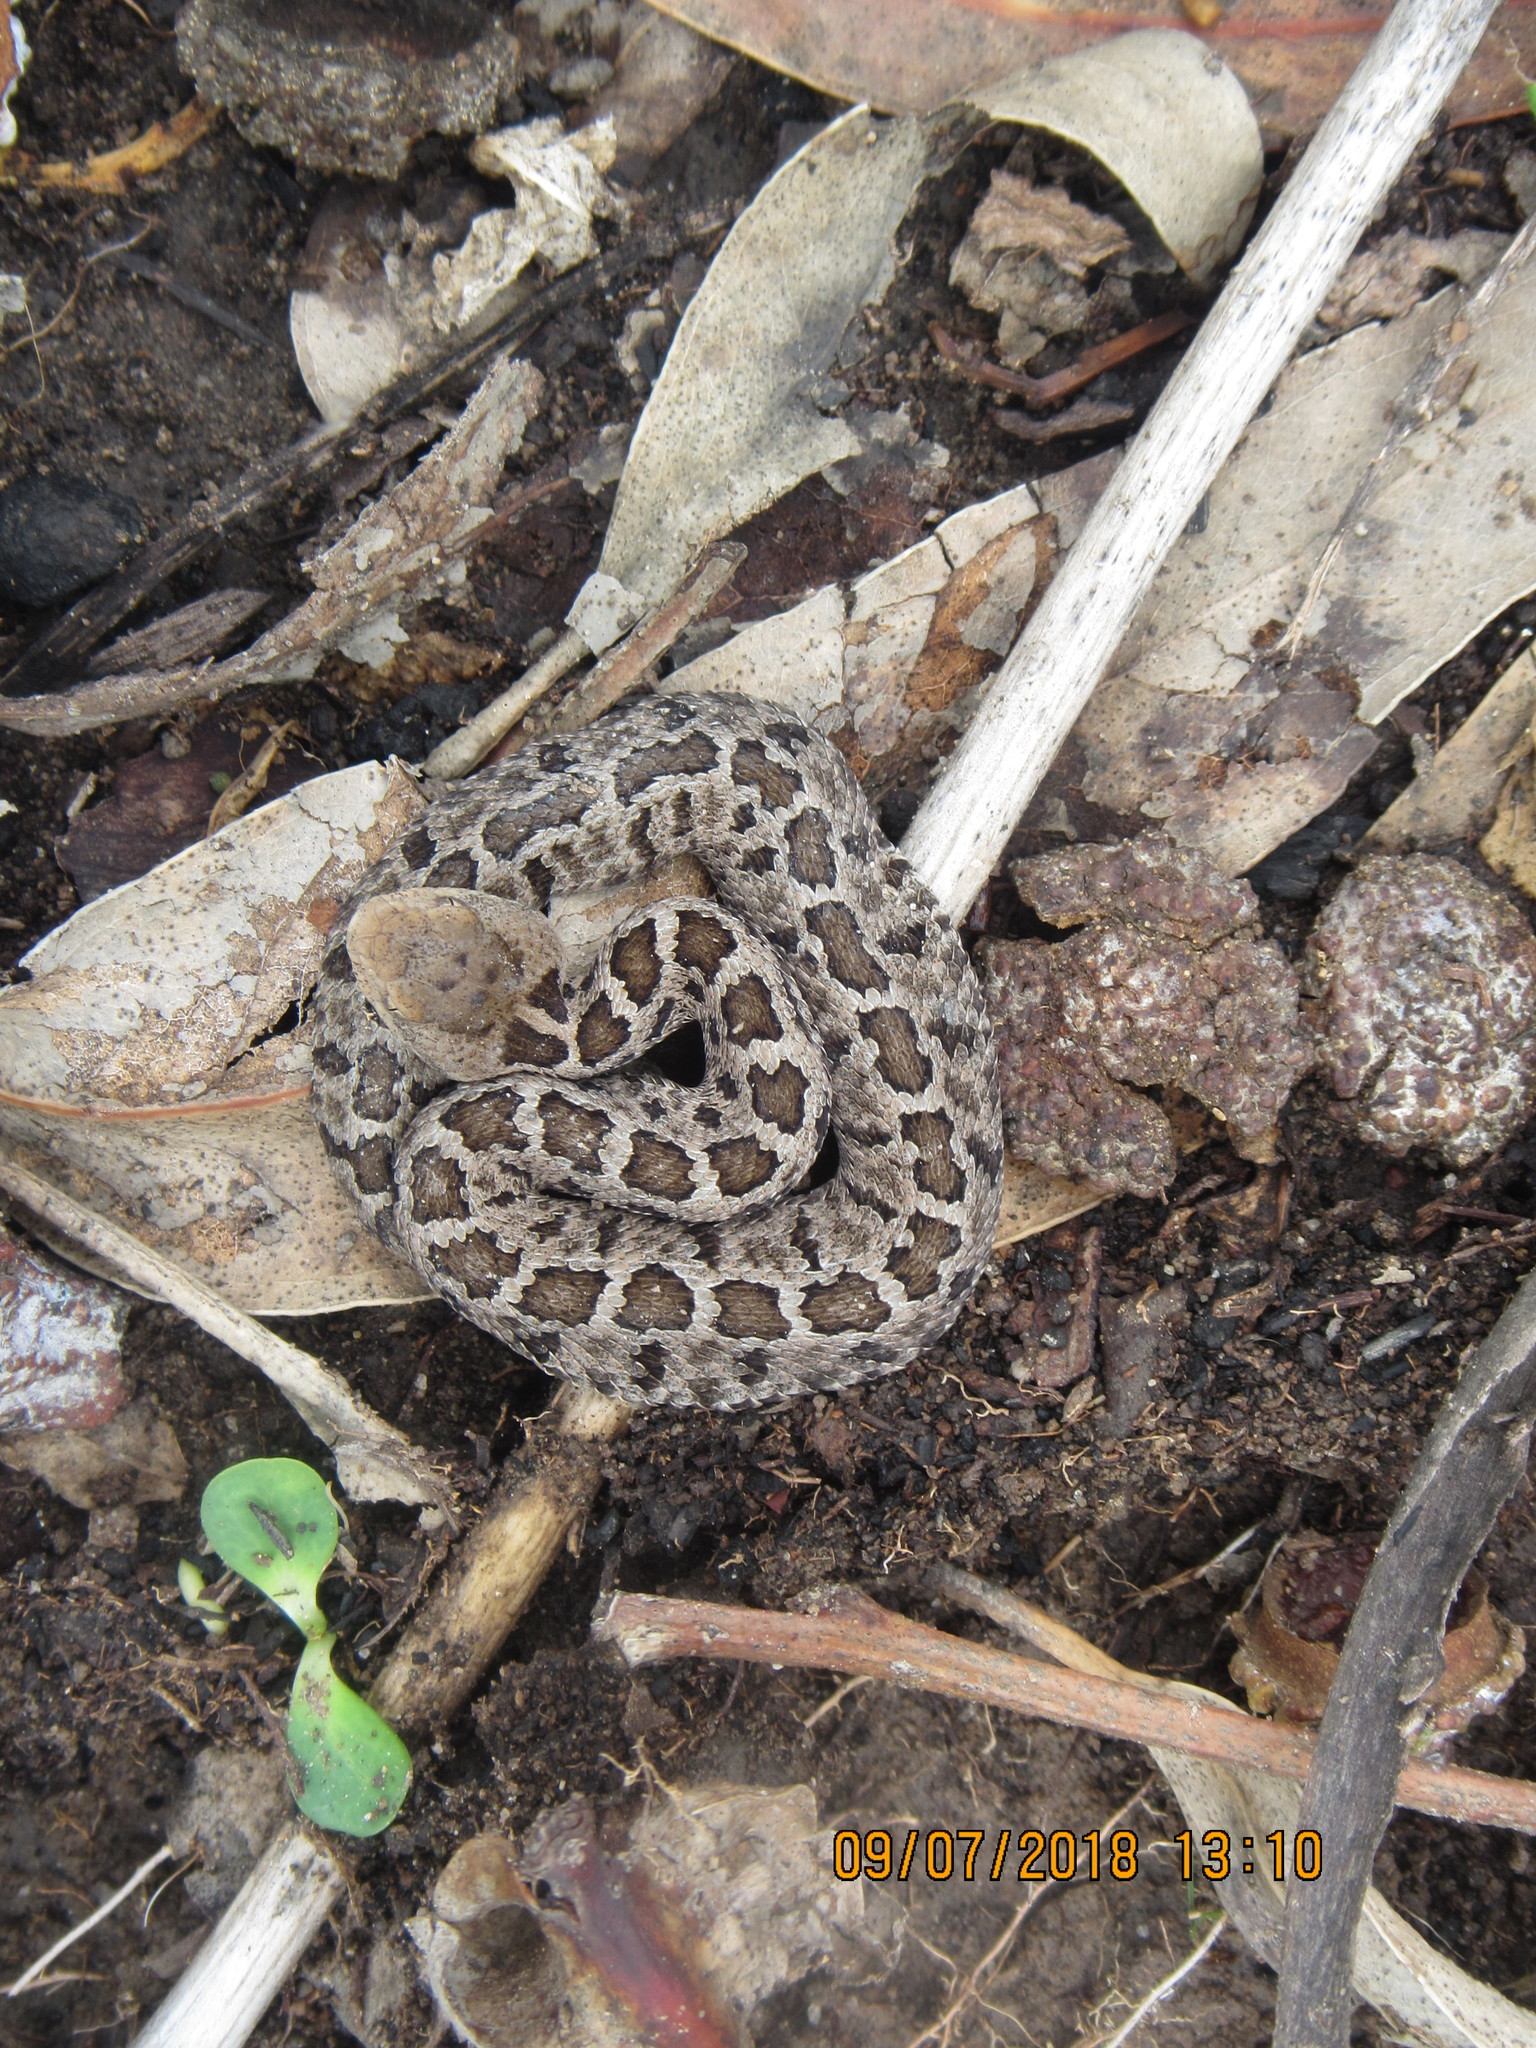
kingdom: Animalia
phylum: Chordata
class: Squamata
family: Viperidae
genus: Crotalus
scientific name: Crotalus ravus
